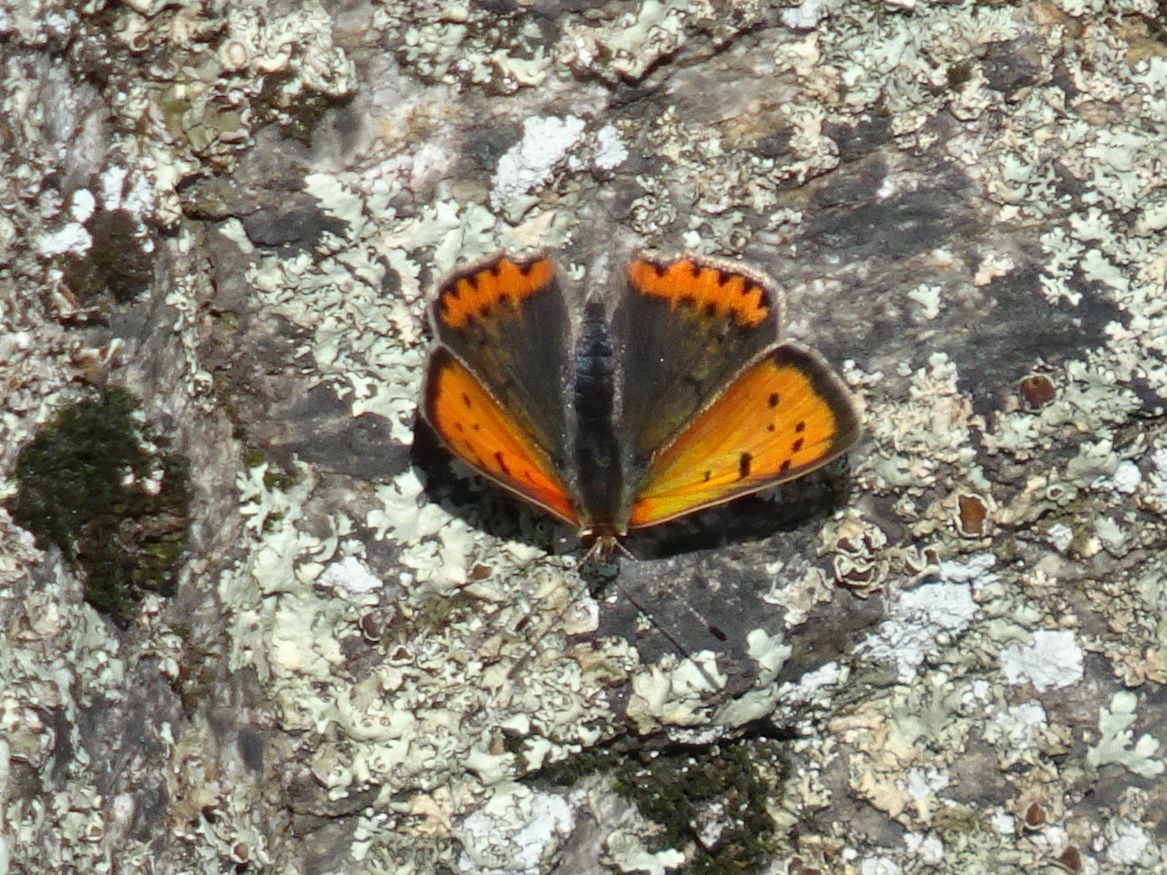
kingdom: Animalia
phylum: Arthropoda
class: Insecta
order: Lepidoptera
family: Lycaenidae
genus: Lycaena
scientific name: Lycaena phlaeas
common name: Small copper
